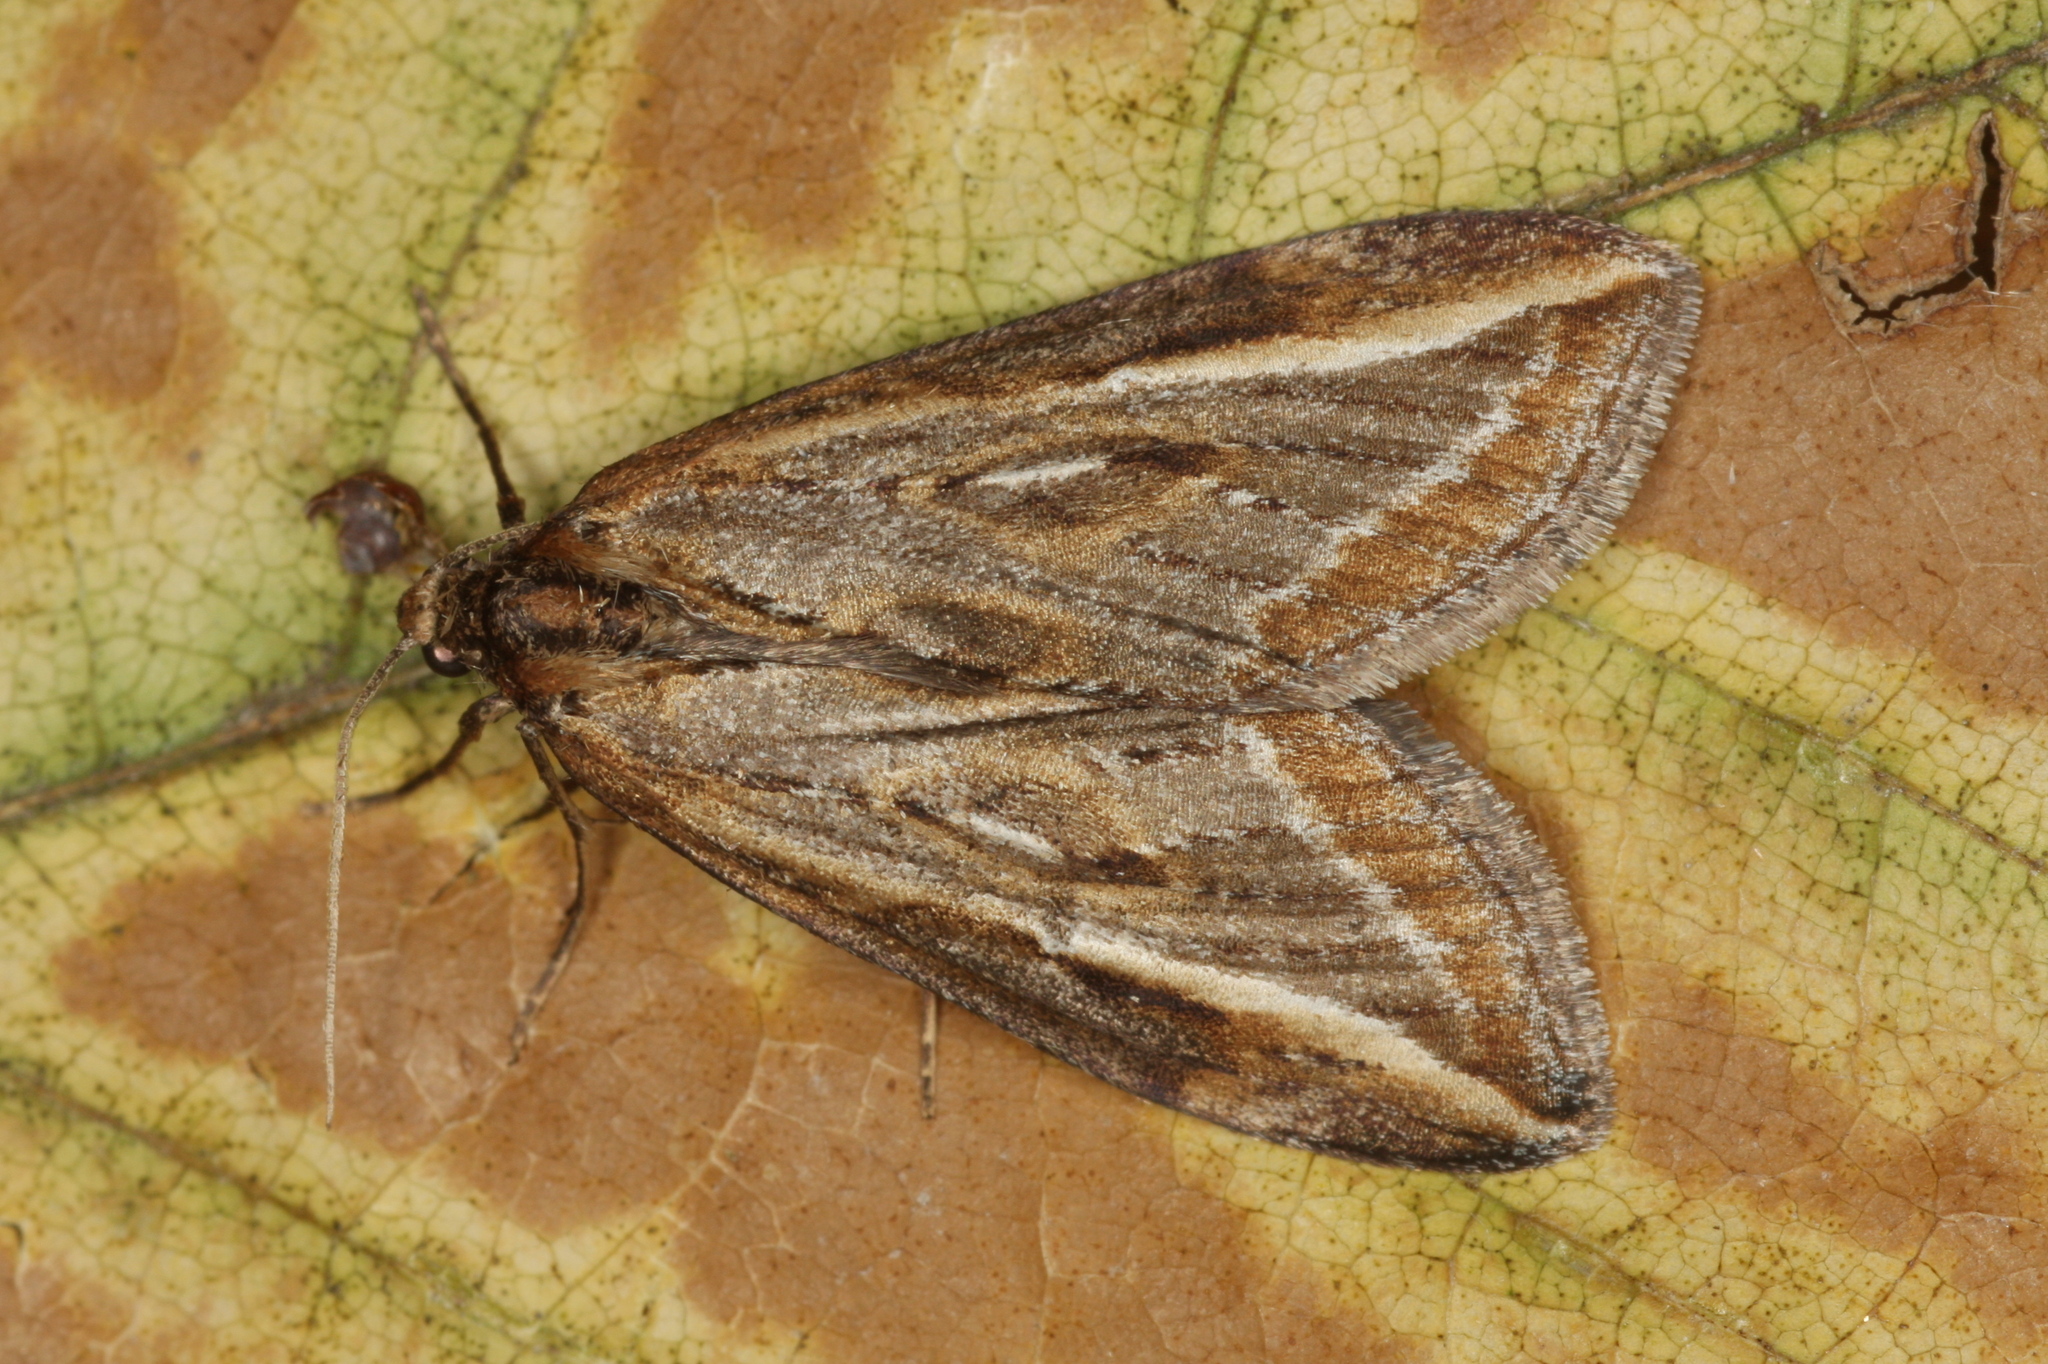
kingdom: Animalia
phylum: Arthropoda
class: Insecta
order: Lepidoptera
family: Geometridae
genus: Chesias
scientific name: Chesias legatella
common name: Streak
